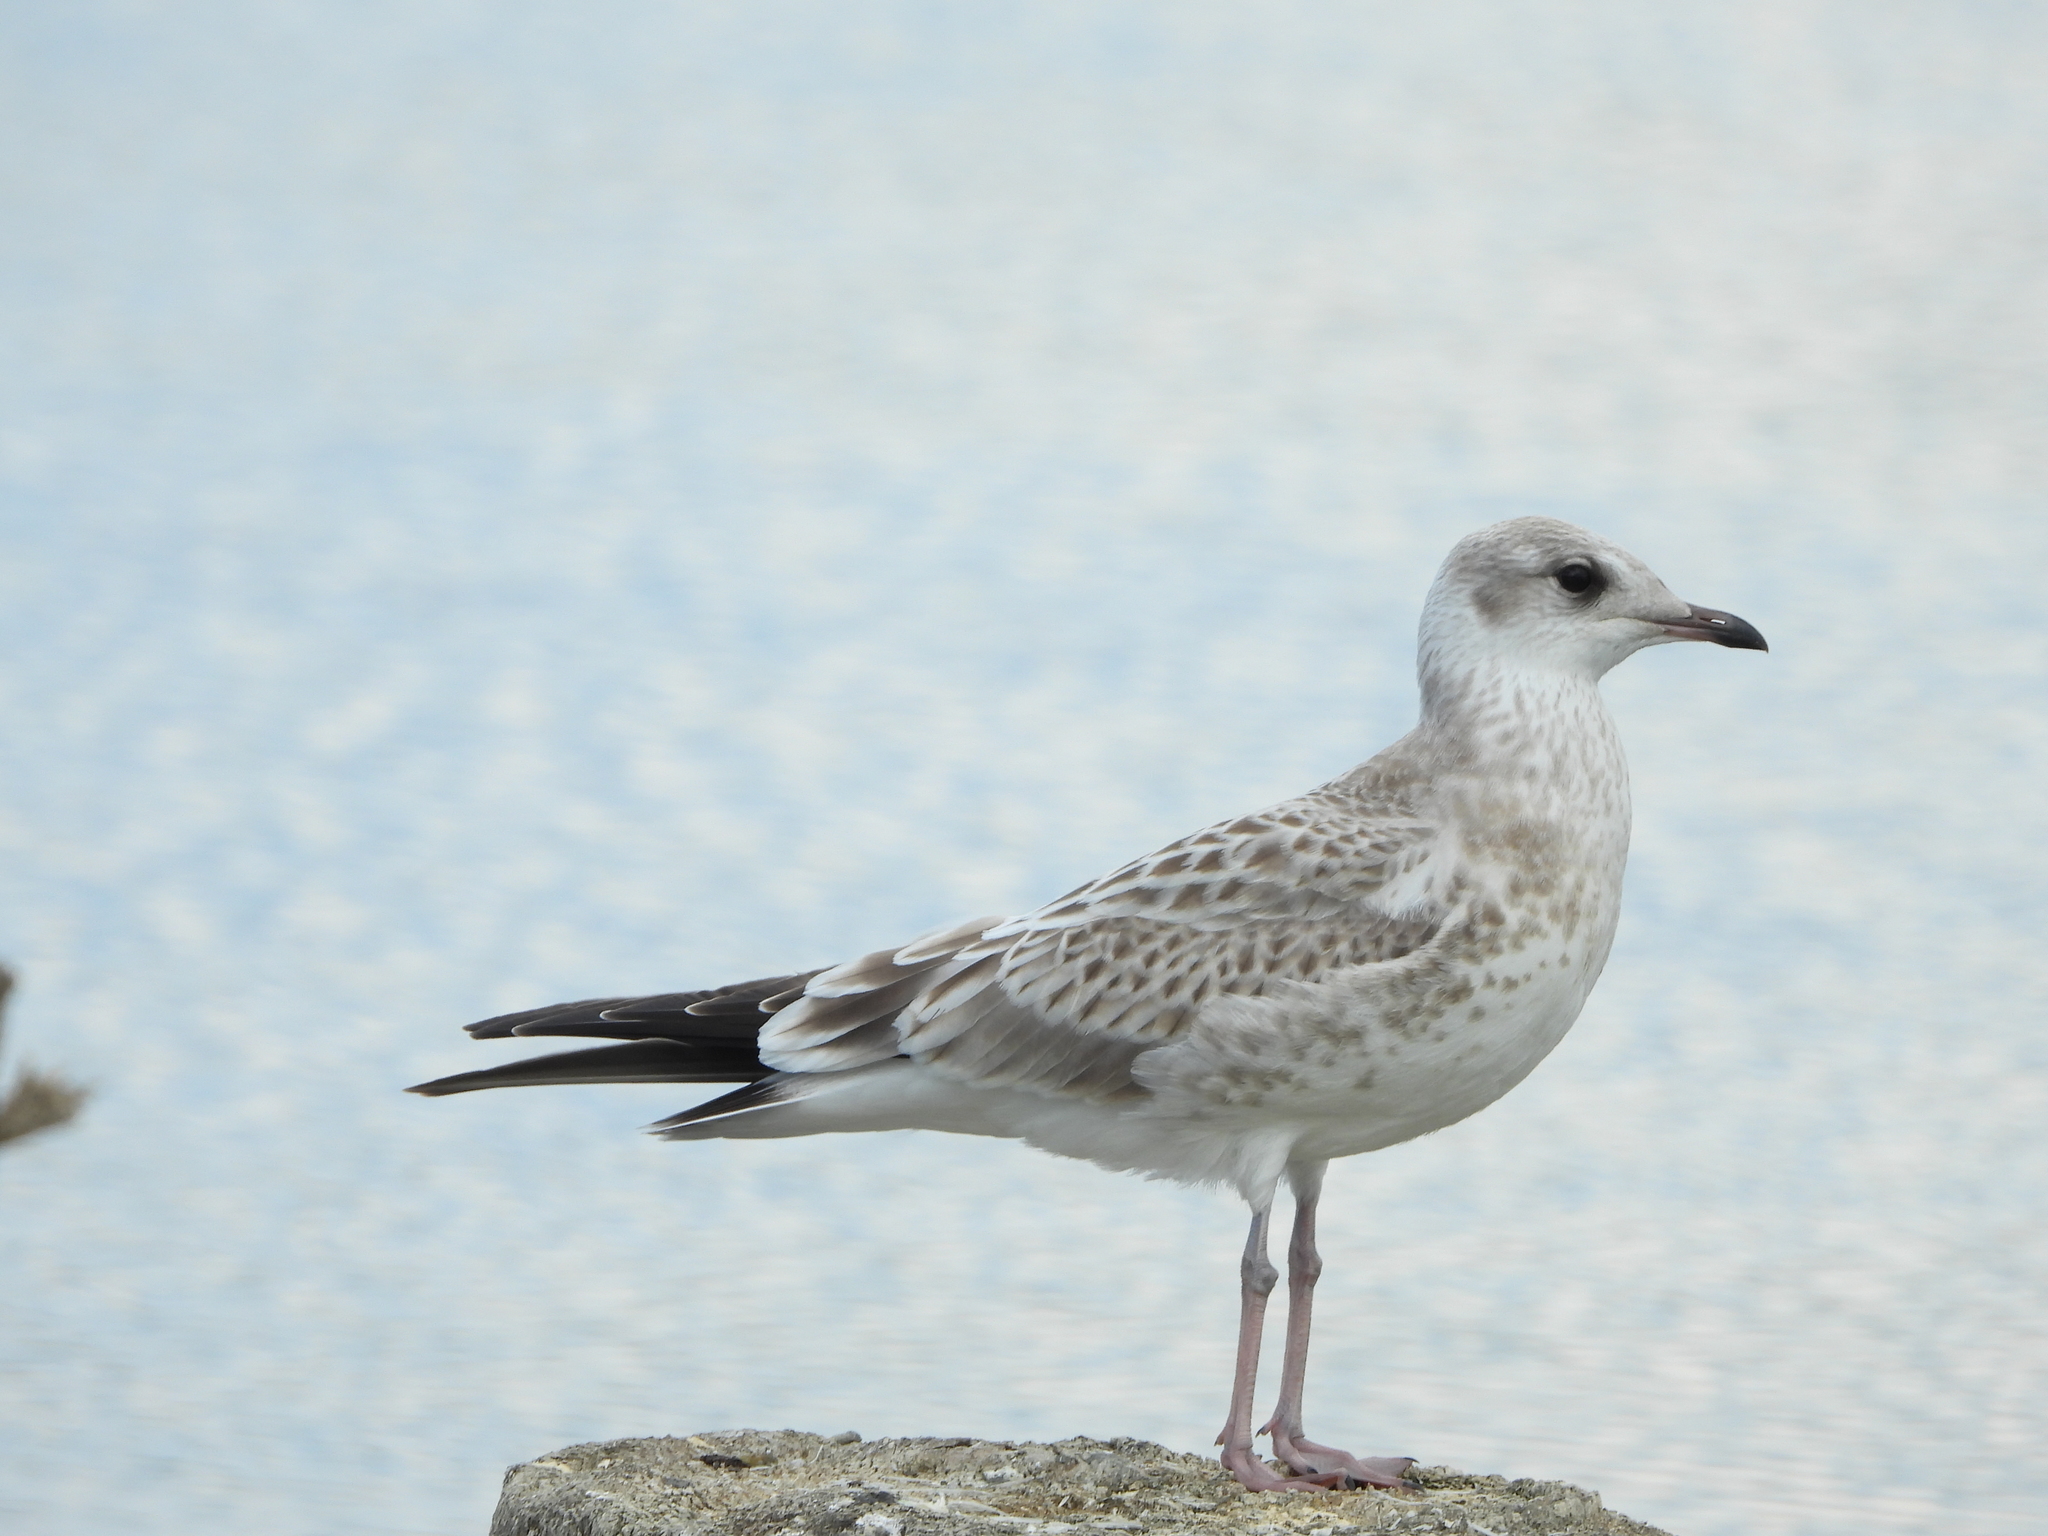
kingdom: Animalia
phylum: Chordata
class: Aves
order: Charadriiformes
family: Laridae
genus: Larus
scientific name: Larus canus
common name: Mew gull
